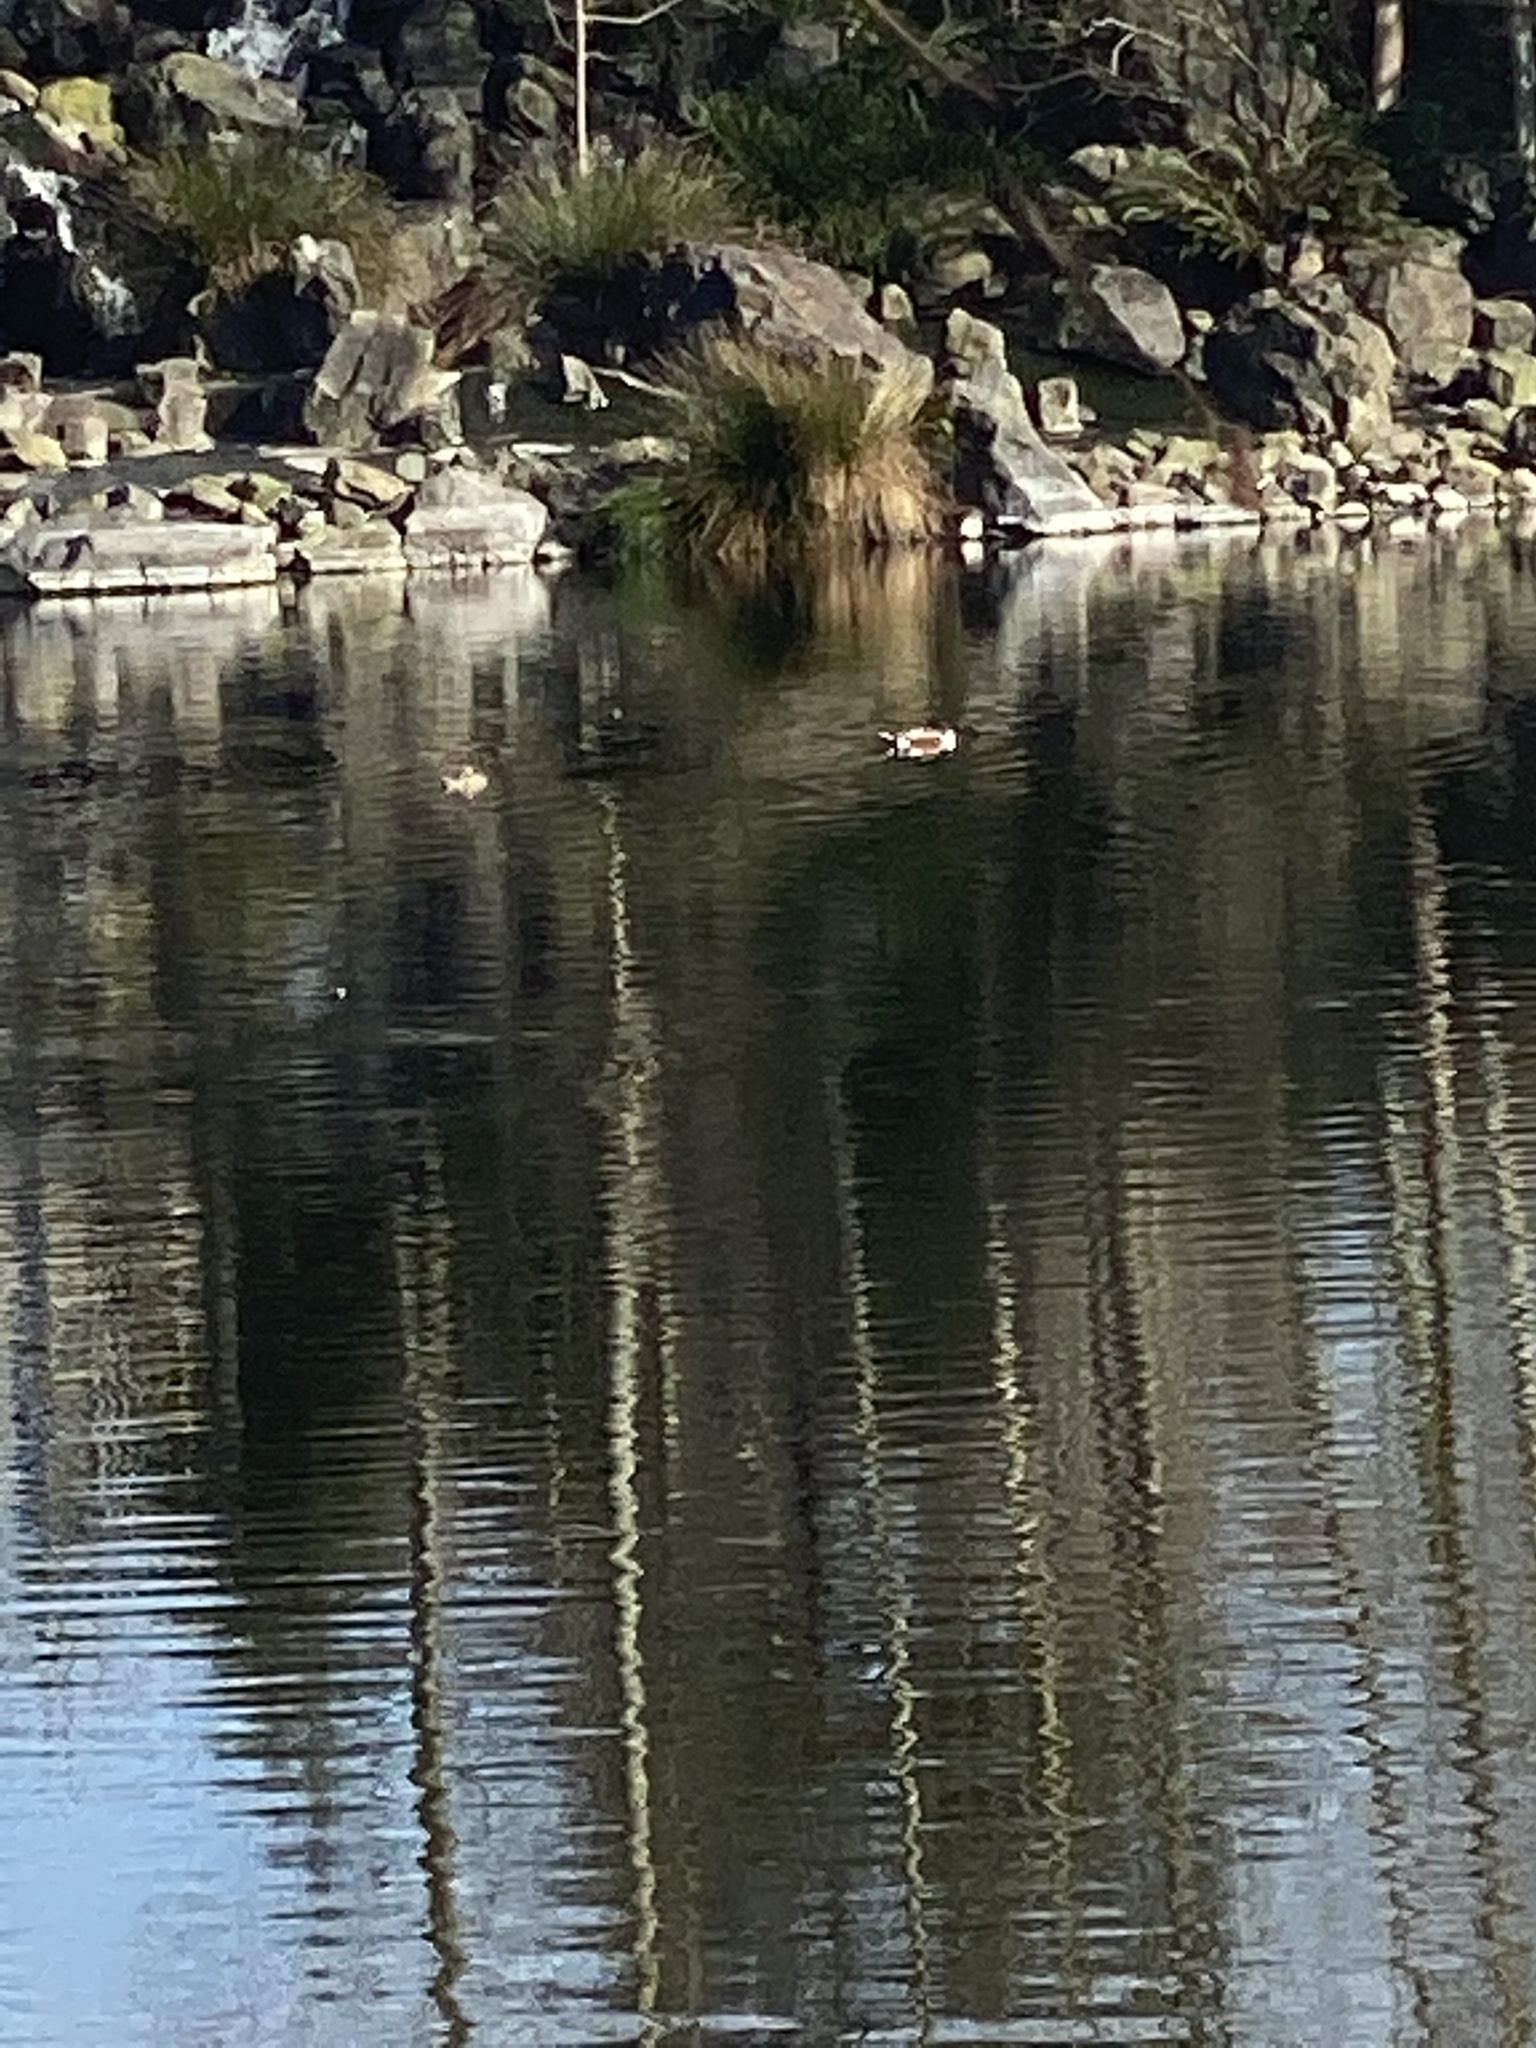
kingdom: Animalia
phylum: Chordata
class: Aves
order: Anseriformes
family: Anatidae
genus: Spatula
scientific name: Spatula clypeata
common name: Northern shoveler
